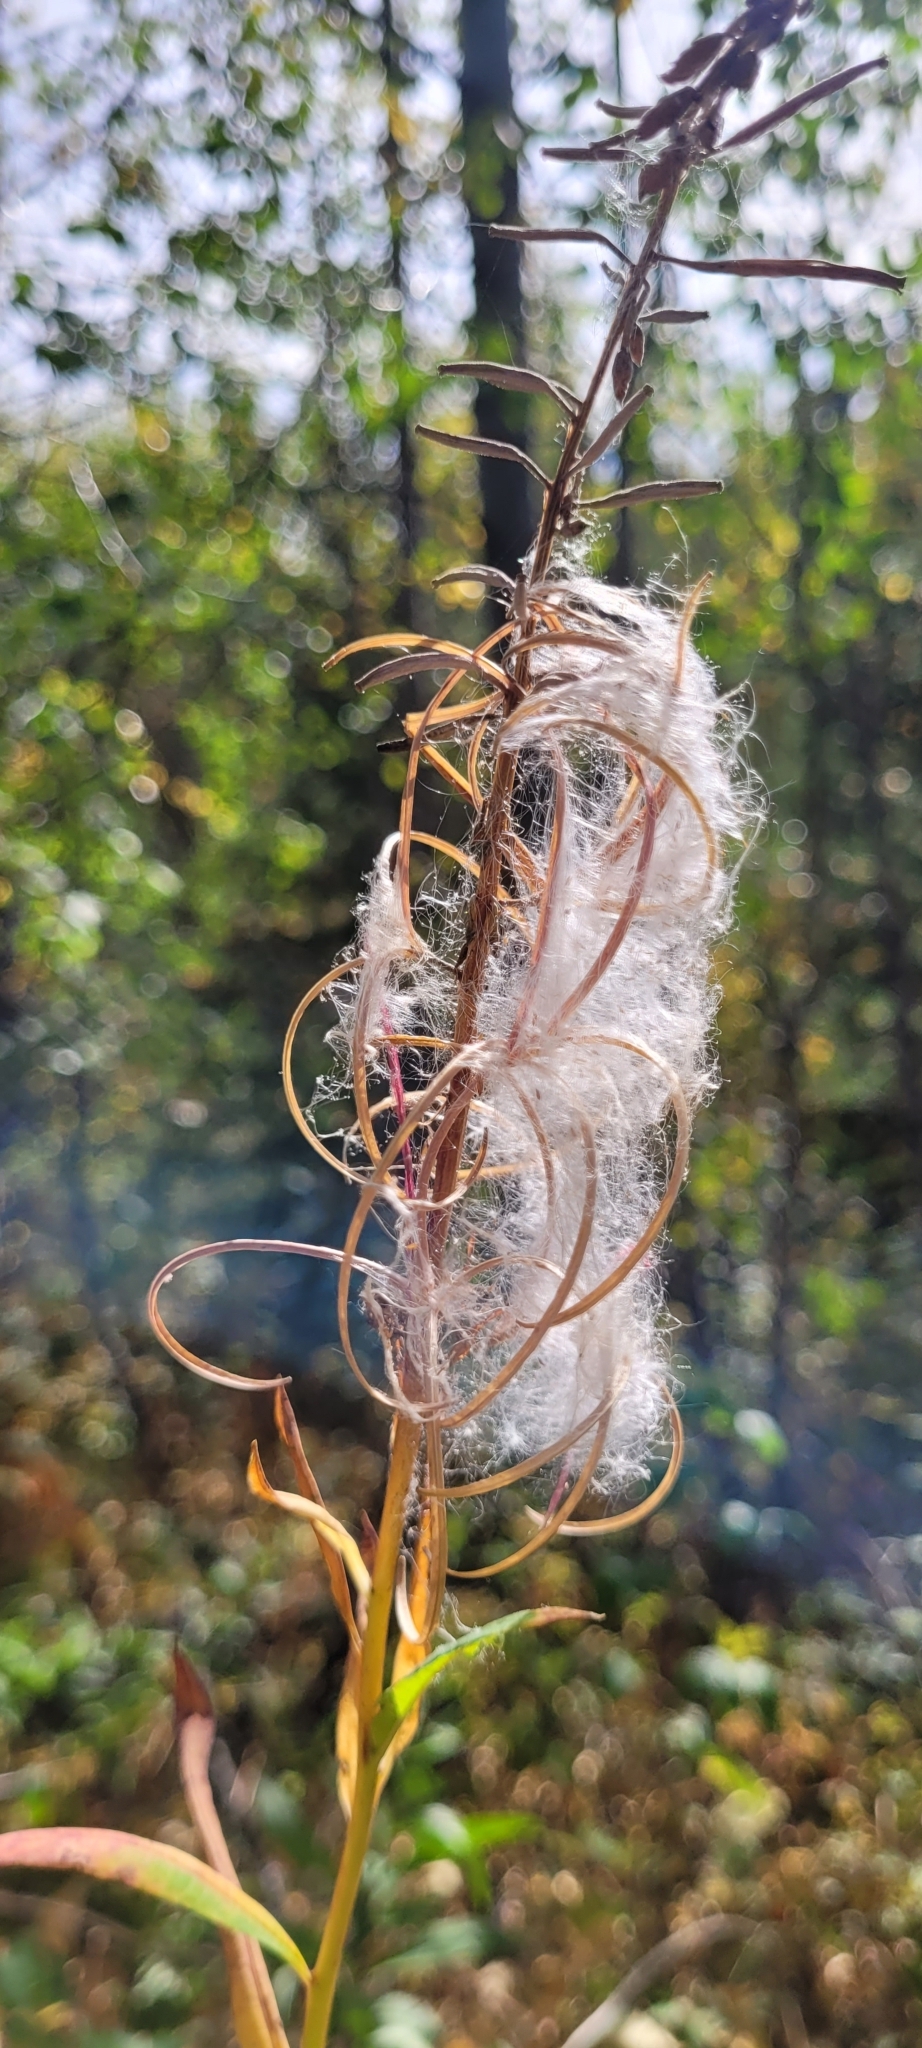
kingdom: Plantae
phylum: Tracheophyta
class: Magnoliopsida
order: Myrtales
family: Onagraceae
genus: Chamaenerion
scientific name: Chamaenerion angustifolium
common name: Fireweed
